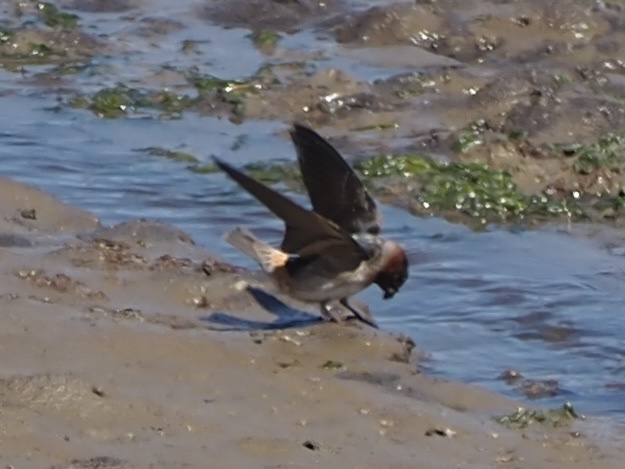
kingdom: Animalia
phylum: Chordata
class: Aves
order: Passeriformes
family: Hirundinidae
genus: Petrochelidon
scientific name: Petrochelidon pyrrhonota
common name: American cliff swallow
